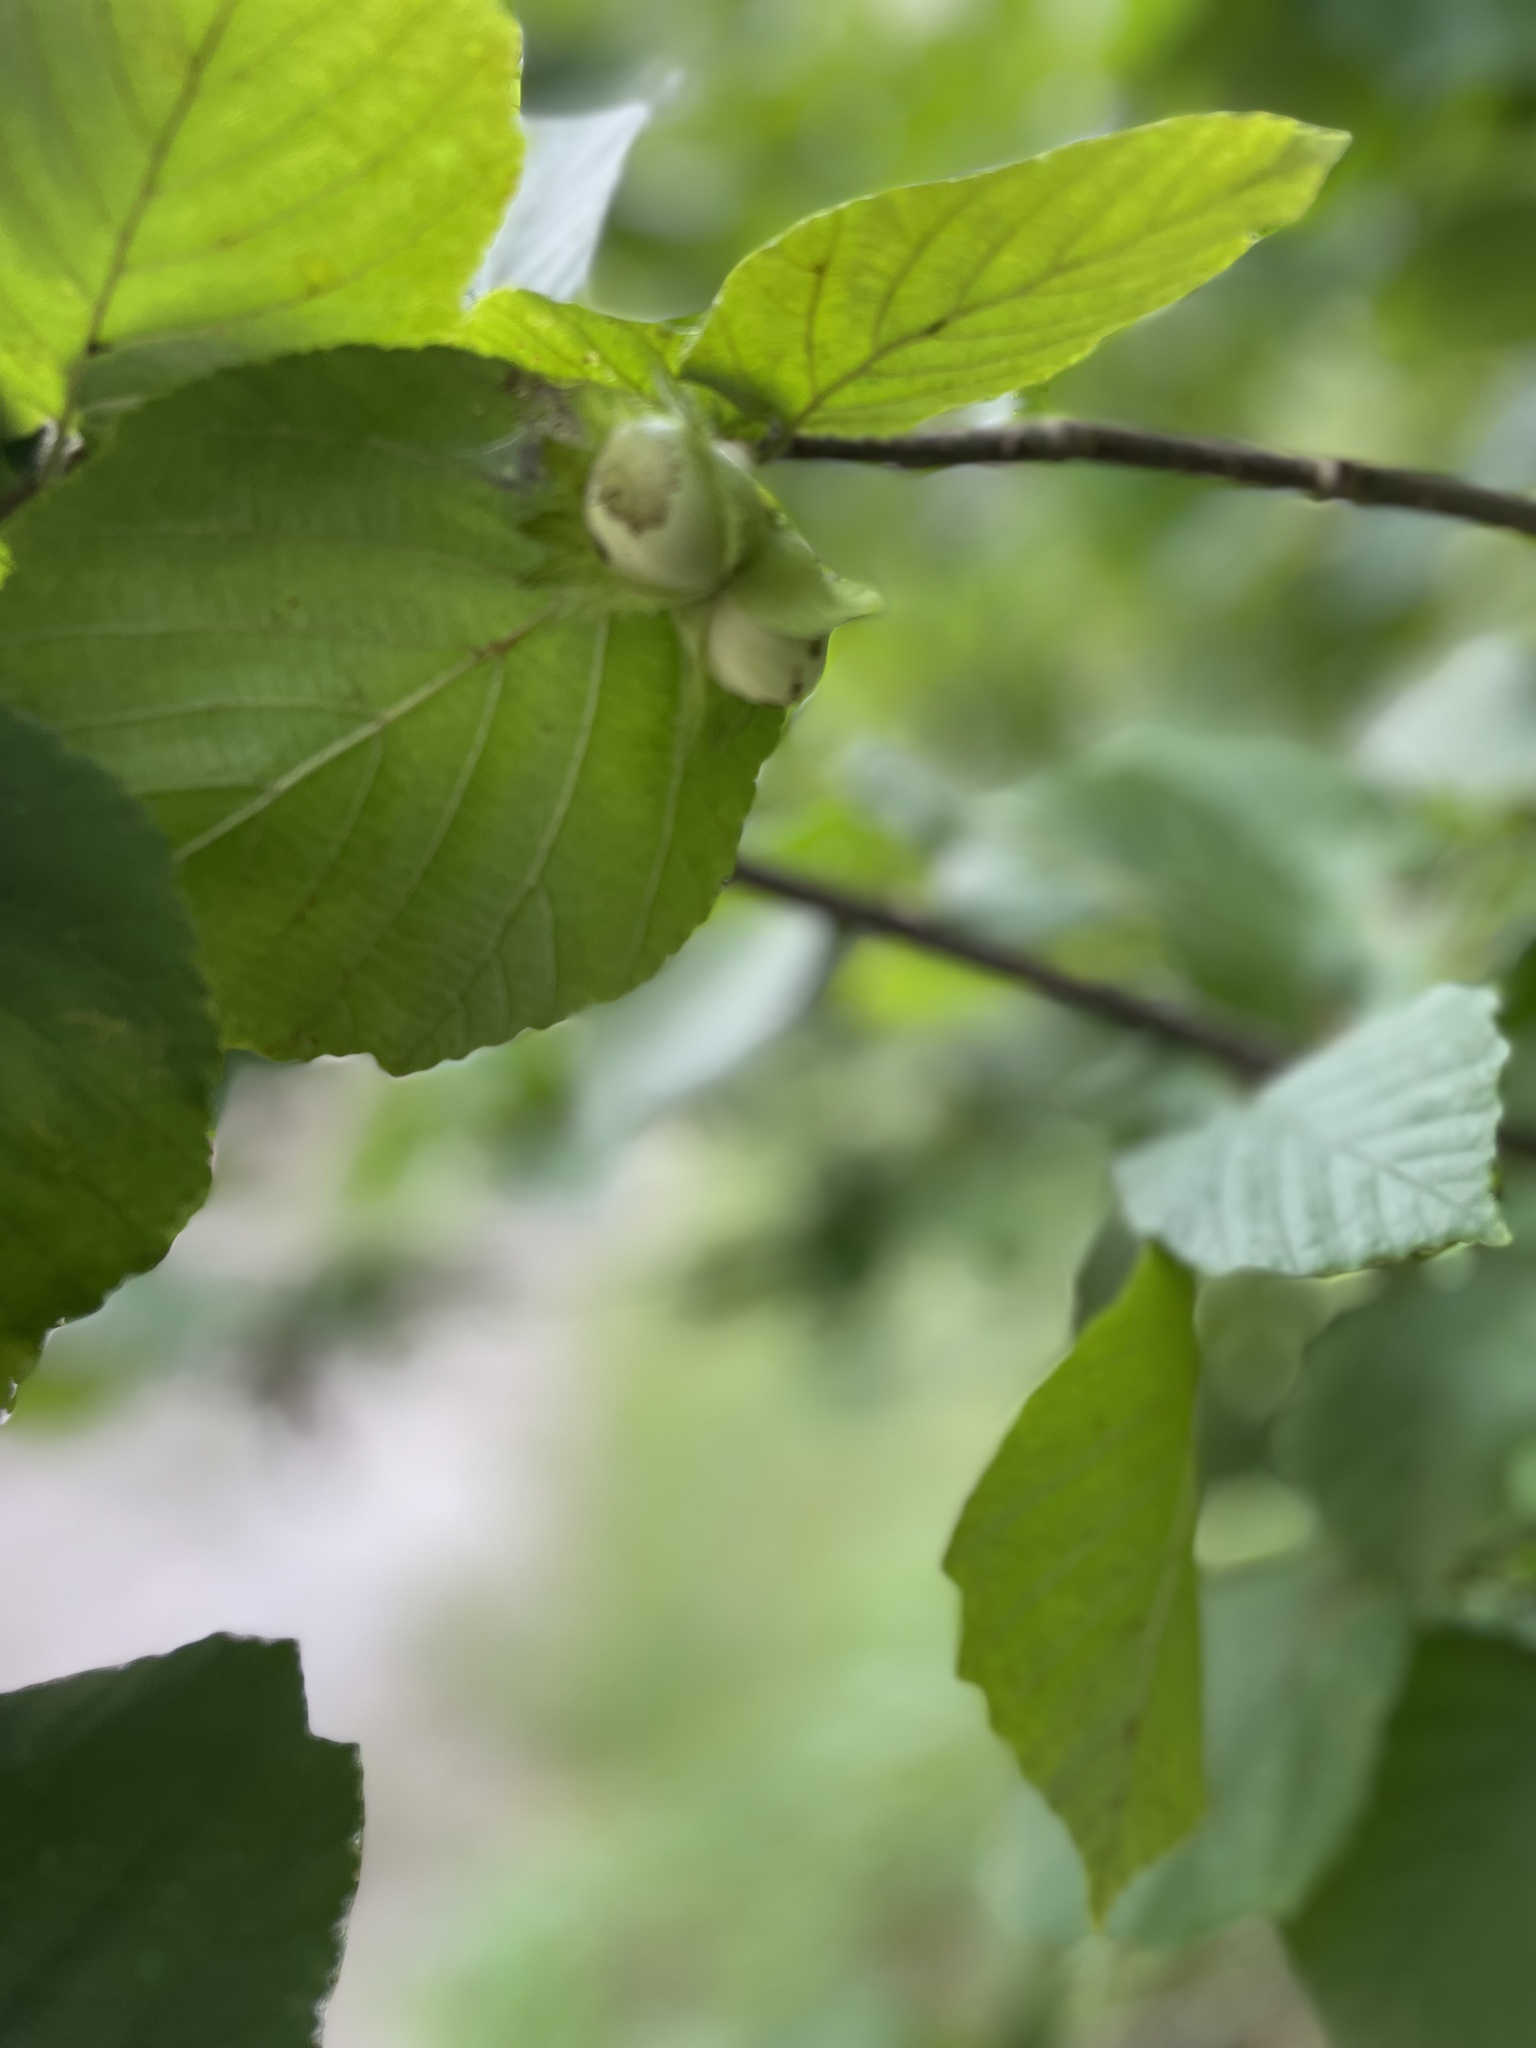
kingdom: Plantae
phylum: Tracheophyta
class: Magnoliopsida
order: Fagales
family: Betulaceae
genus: Corylus
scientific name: Corylus avellana
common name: European hazel
